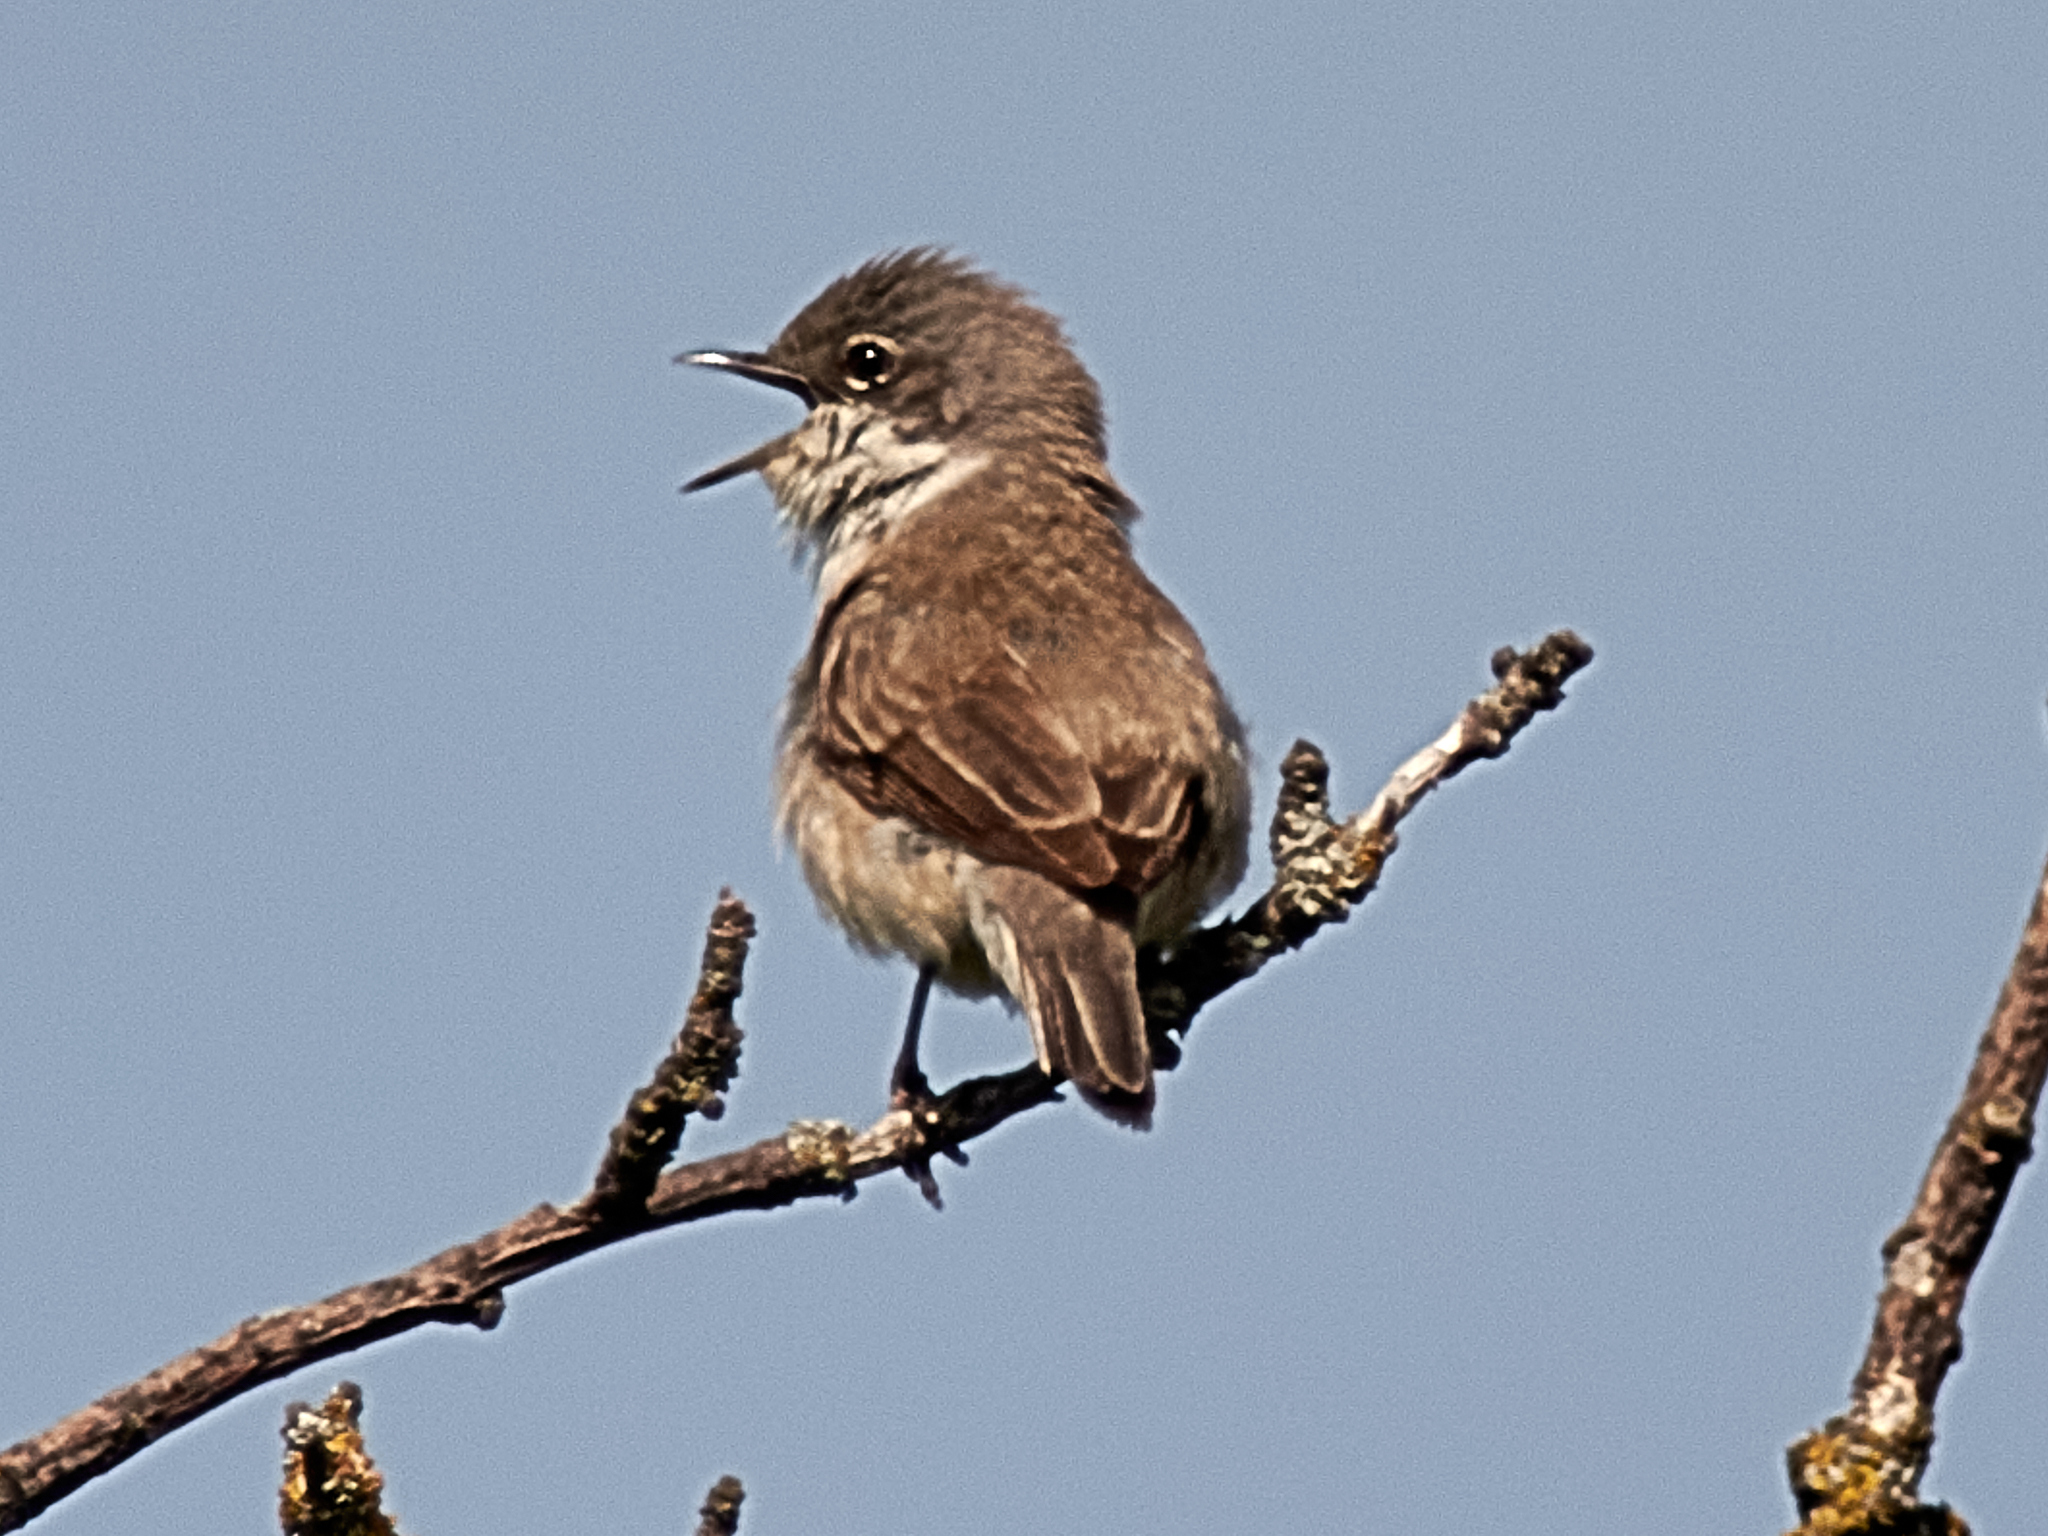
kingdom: Animalia
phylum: Chordata
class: Aves
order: Passeriformes
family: Sylviidae
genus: Sylvia
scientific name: Sylvia curruca
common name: Lesser whitethroat
